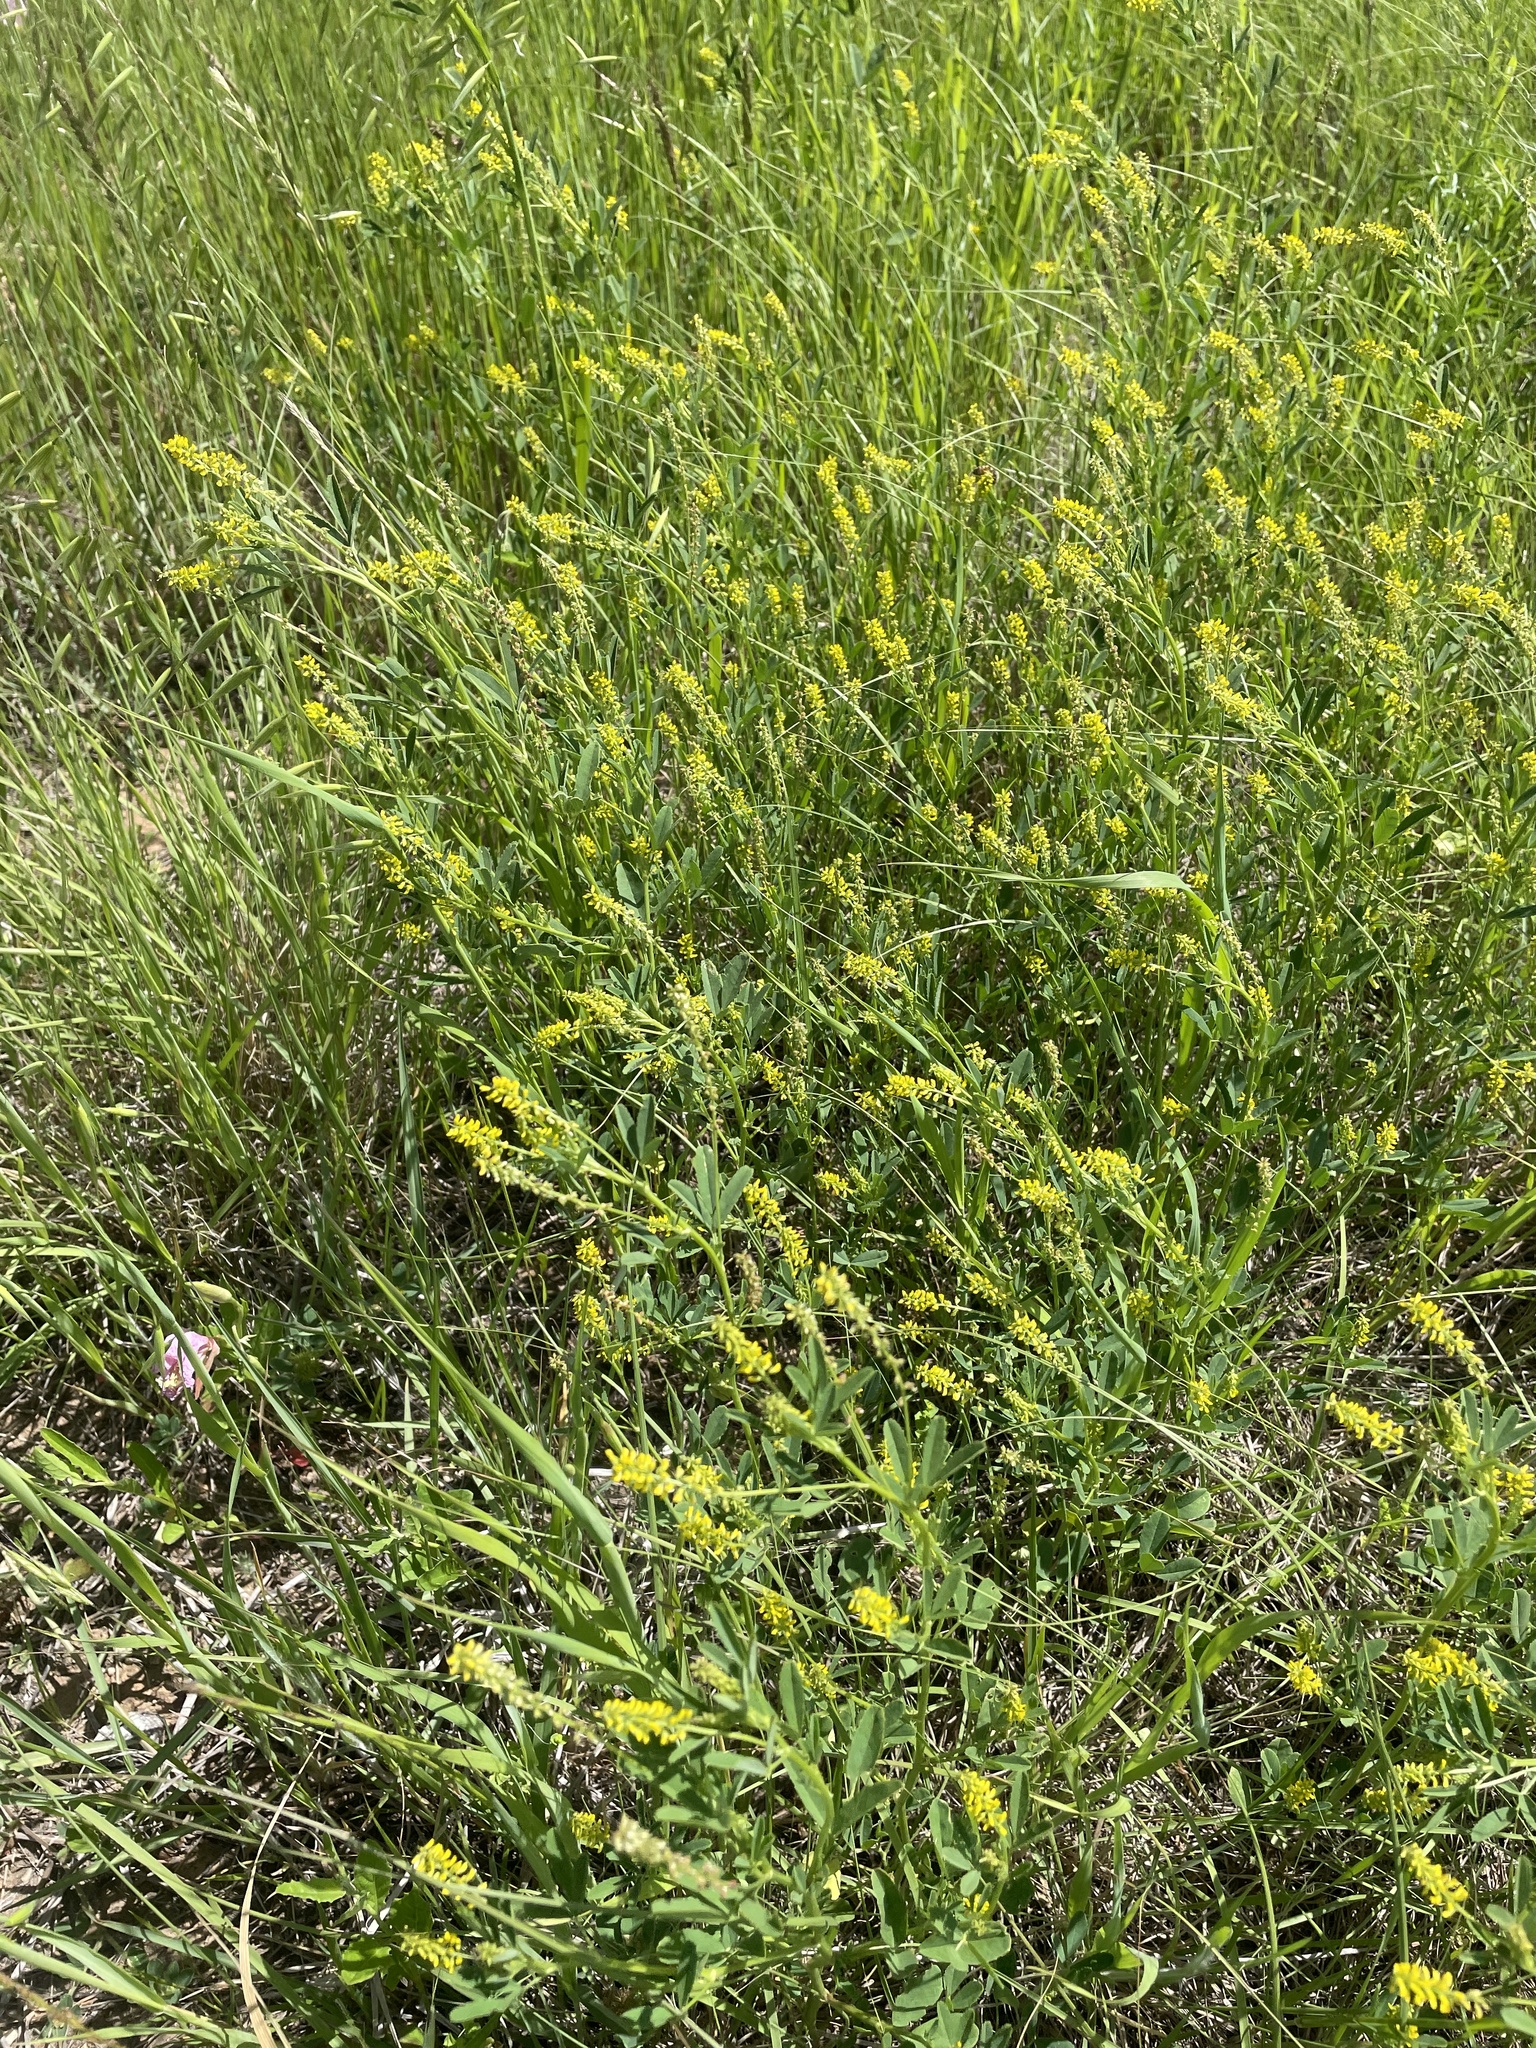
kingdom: Plantae
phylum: Tracheophyta
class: Magnoliopsida
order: Fabales
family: Fabaceae
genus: Melilotus
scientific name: Melilotus indicus
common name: Small melilot
